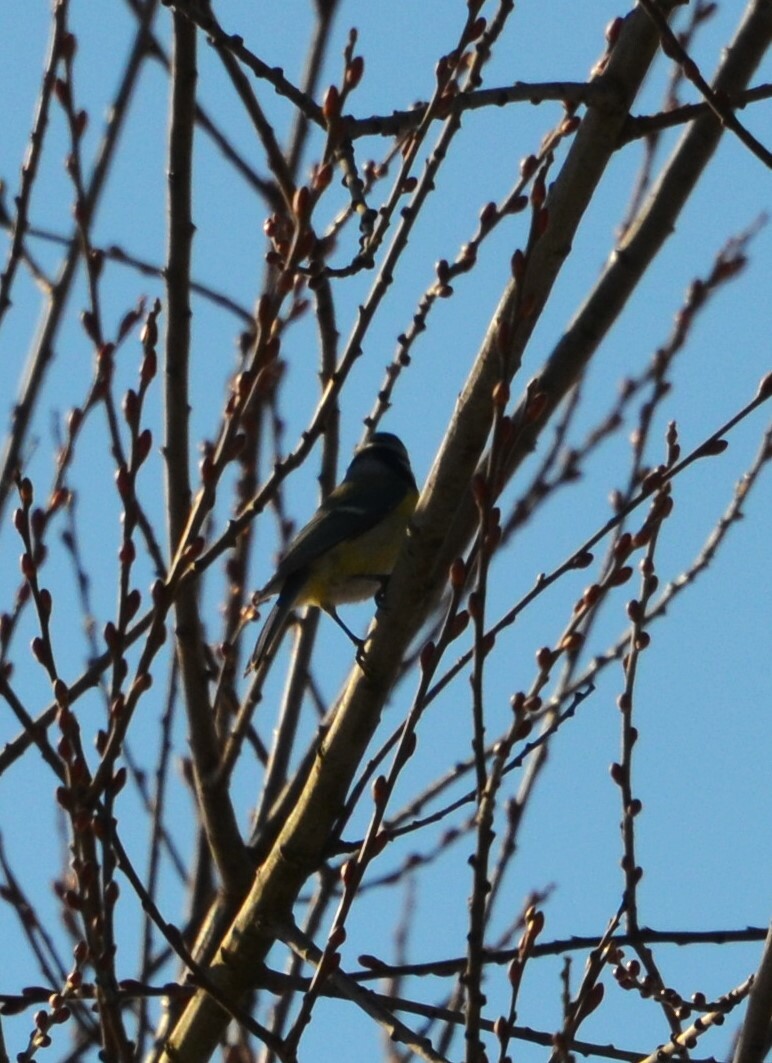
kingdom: Animalia
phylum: Chordata
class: Aves
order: Passeriformes
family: Paridae
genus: Cyanistes
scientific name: Cyanistes caeruleus
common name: Eurasian blue tit
